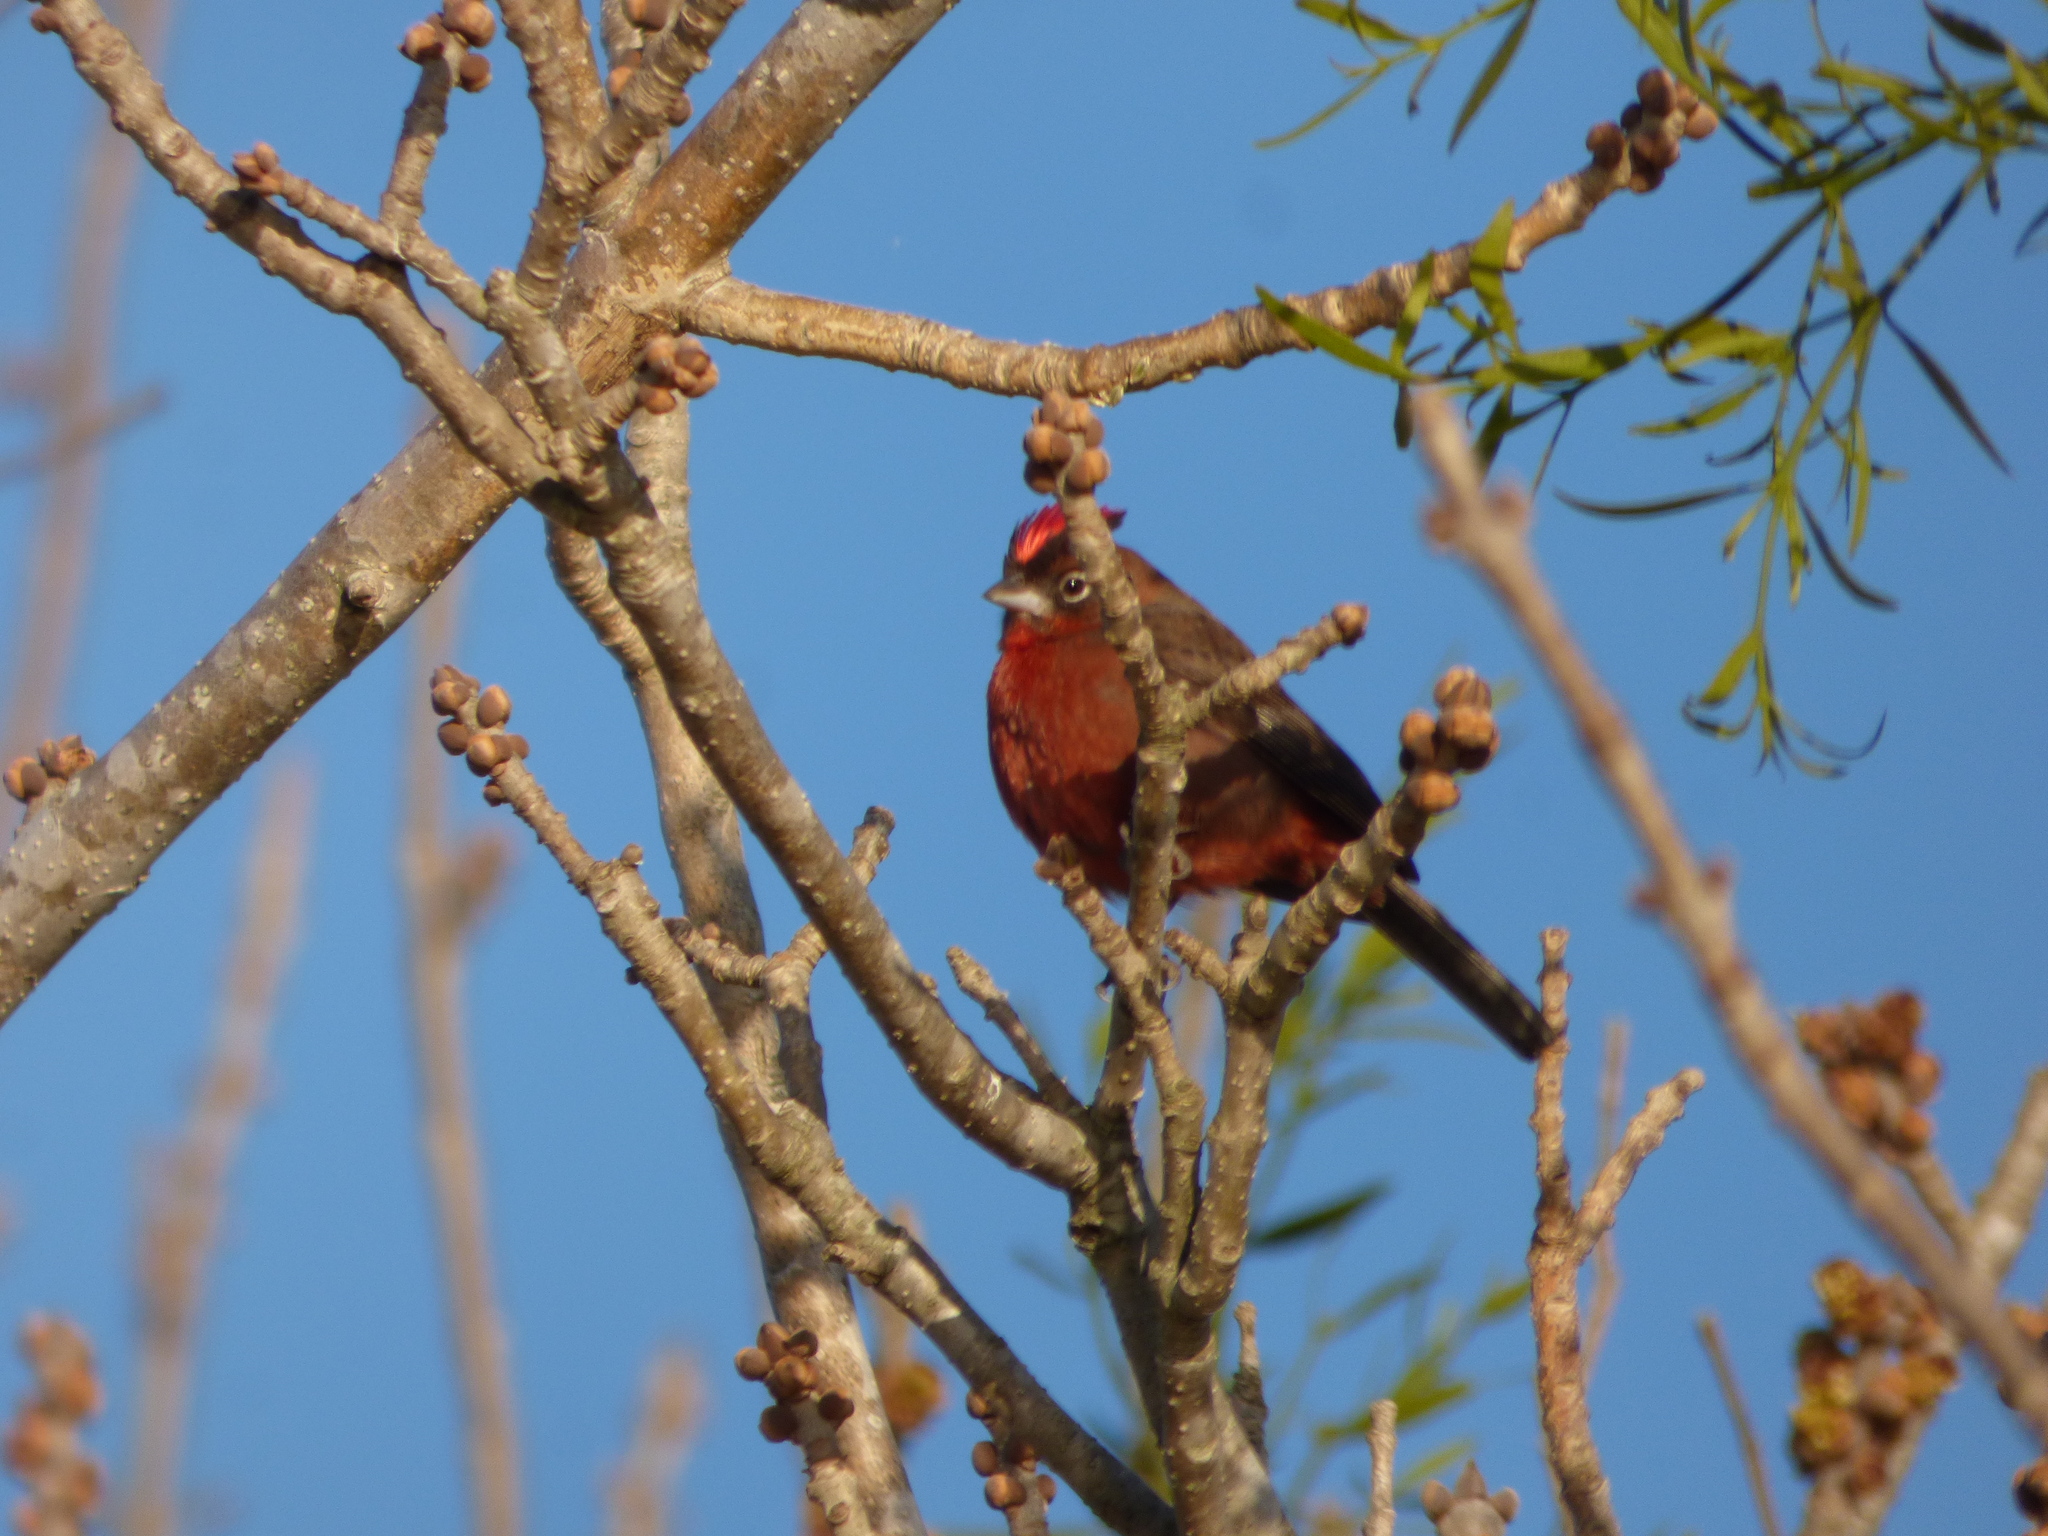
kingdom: Animalia
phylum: Chordata
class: Aves
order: Passeriformes
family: Thraupidae
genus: Coryphospingus
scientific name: Coryphospingus cucullatus
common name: Red pileated finch
